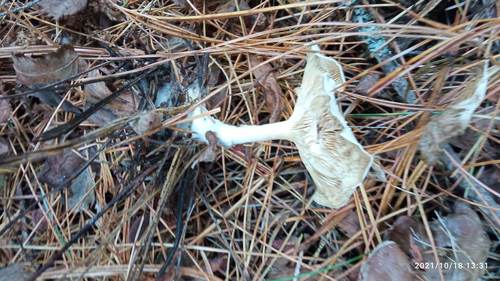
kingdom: Fungi
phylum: Basidiomycota
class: Agaricomycetes
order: Agaricales
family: Hygrophoraceae
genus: Ampulloclitocybe
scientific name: Ampulloclitocybe clavipes
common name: Club foot
